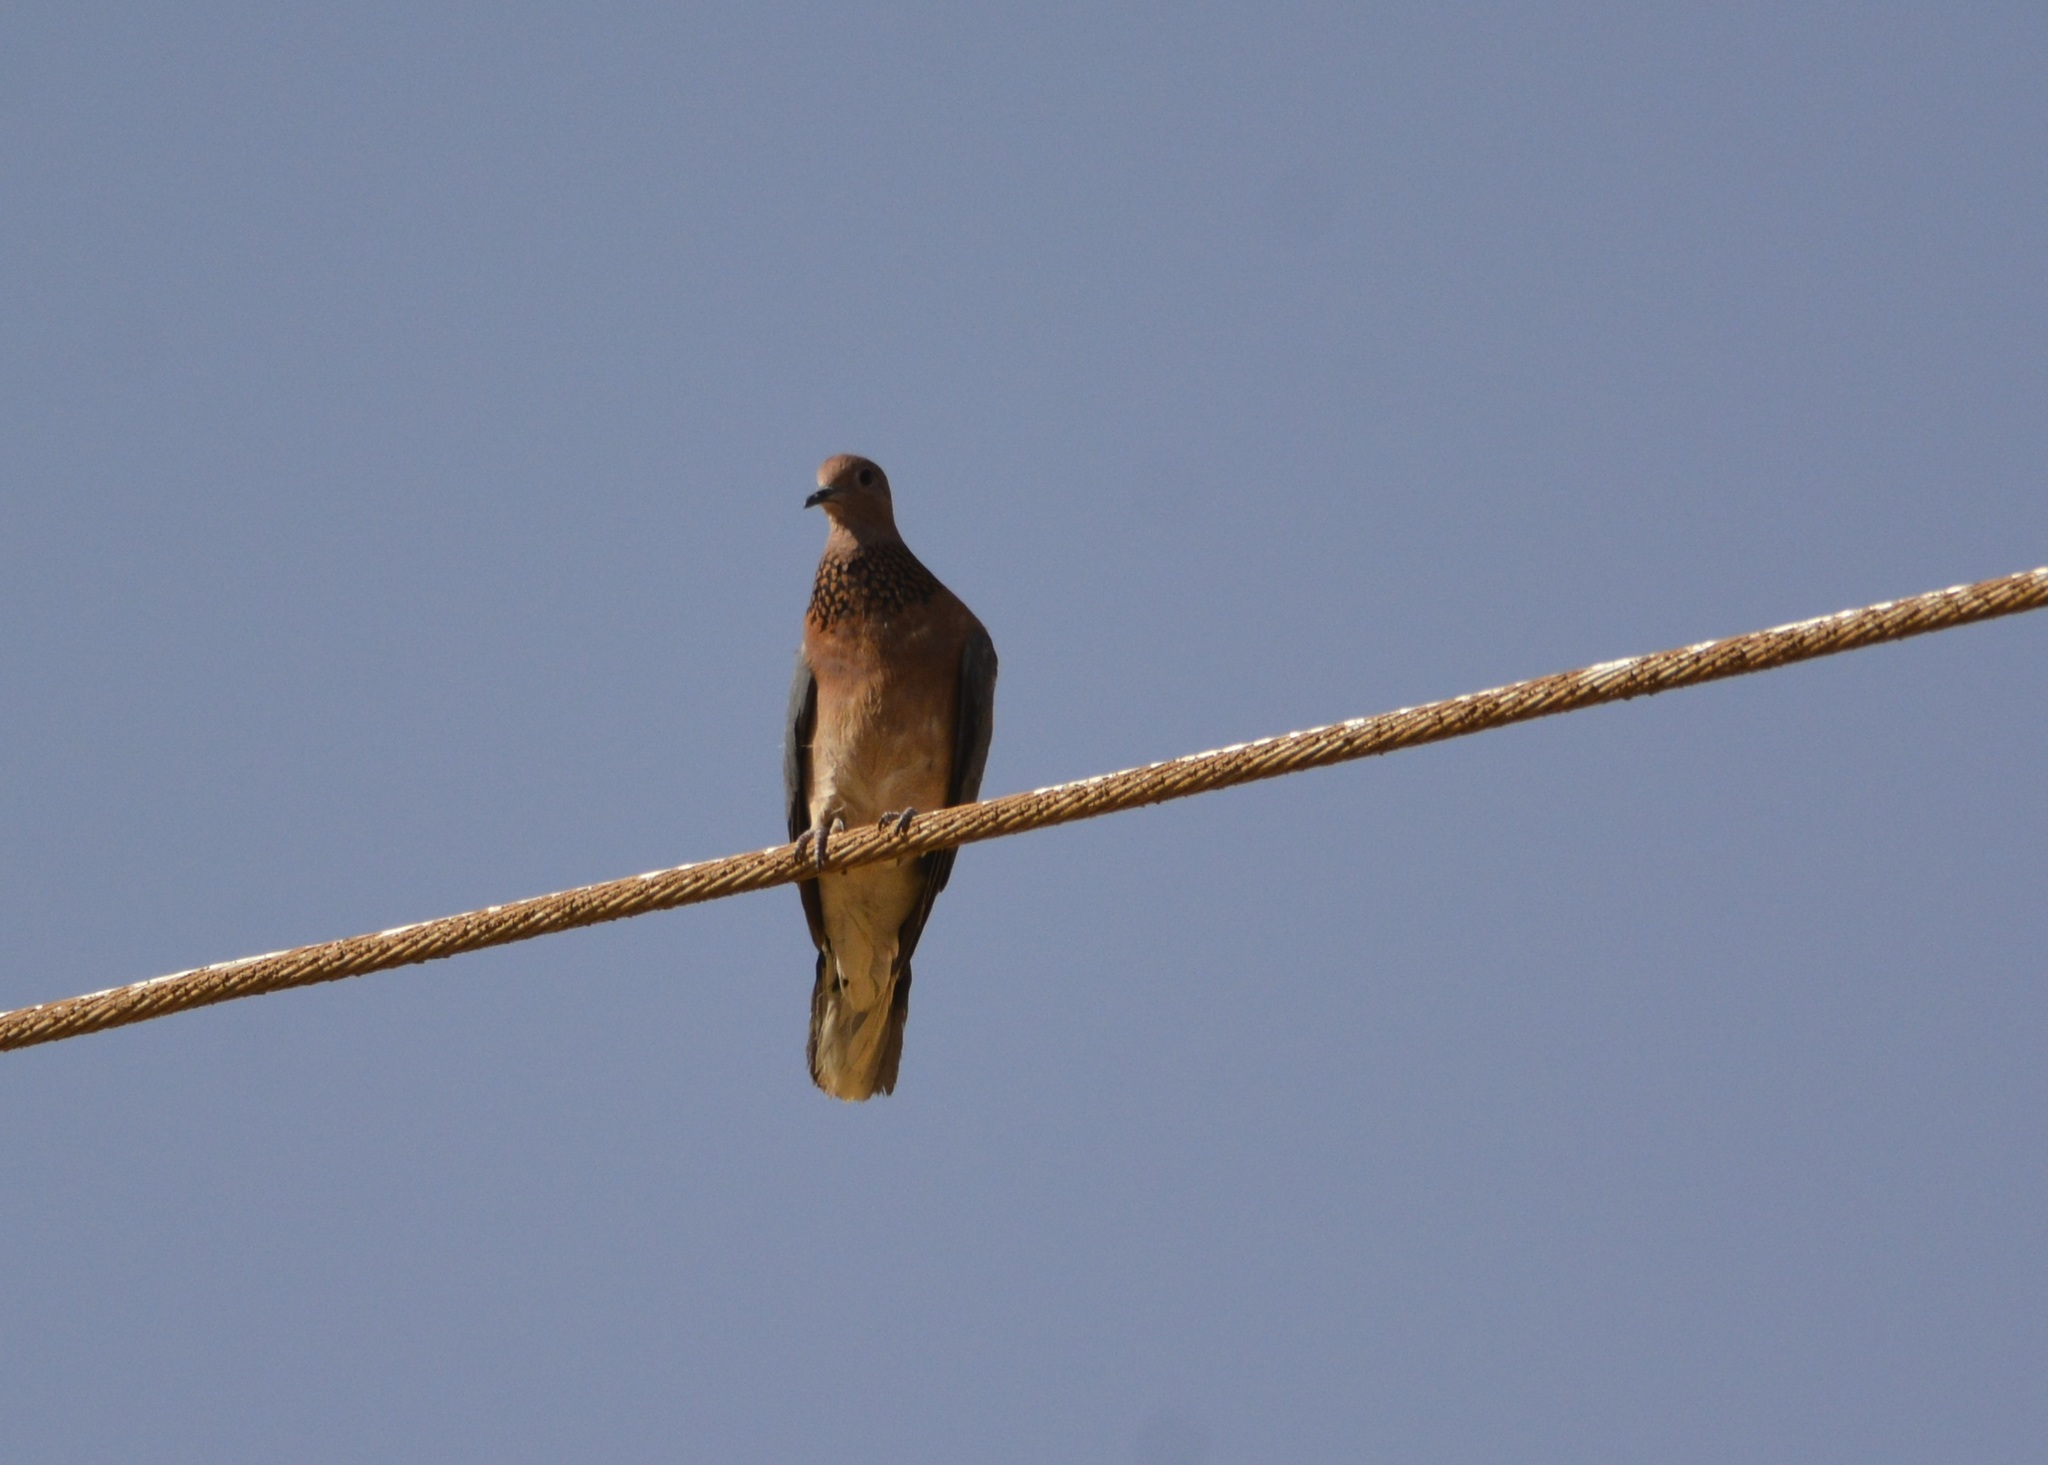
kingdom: Animalia
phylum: Chordata
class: Aves
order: Columbiformes
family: Columbidae
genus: Spilopelia
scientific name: Spilopelia senegalensis
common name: Laughing dove
